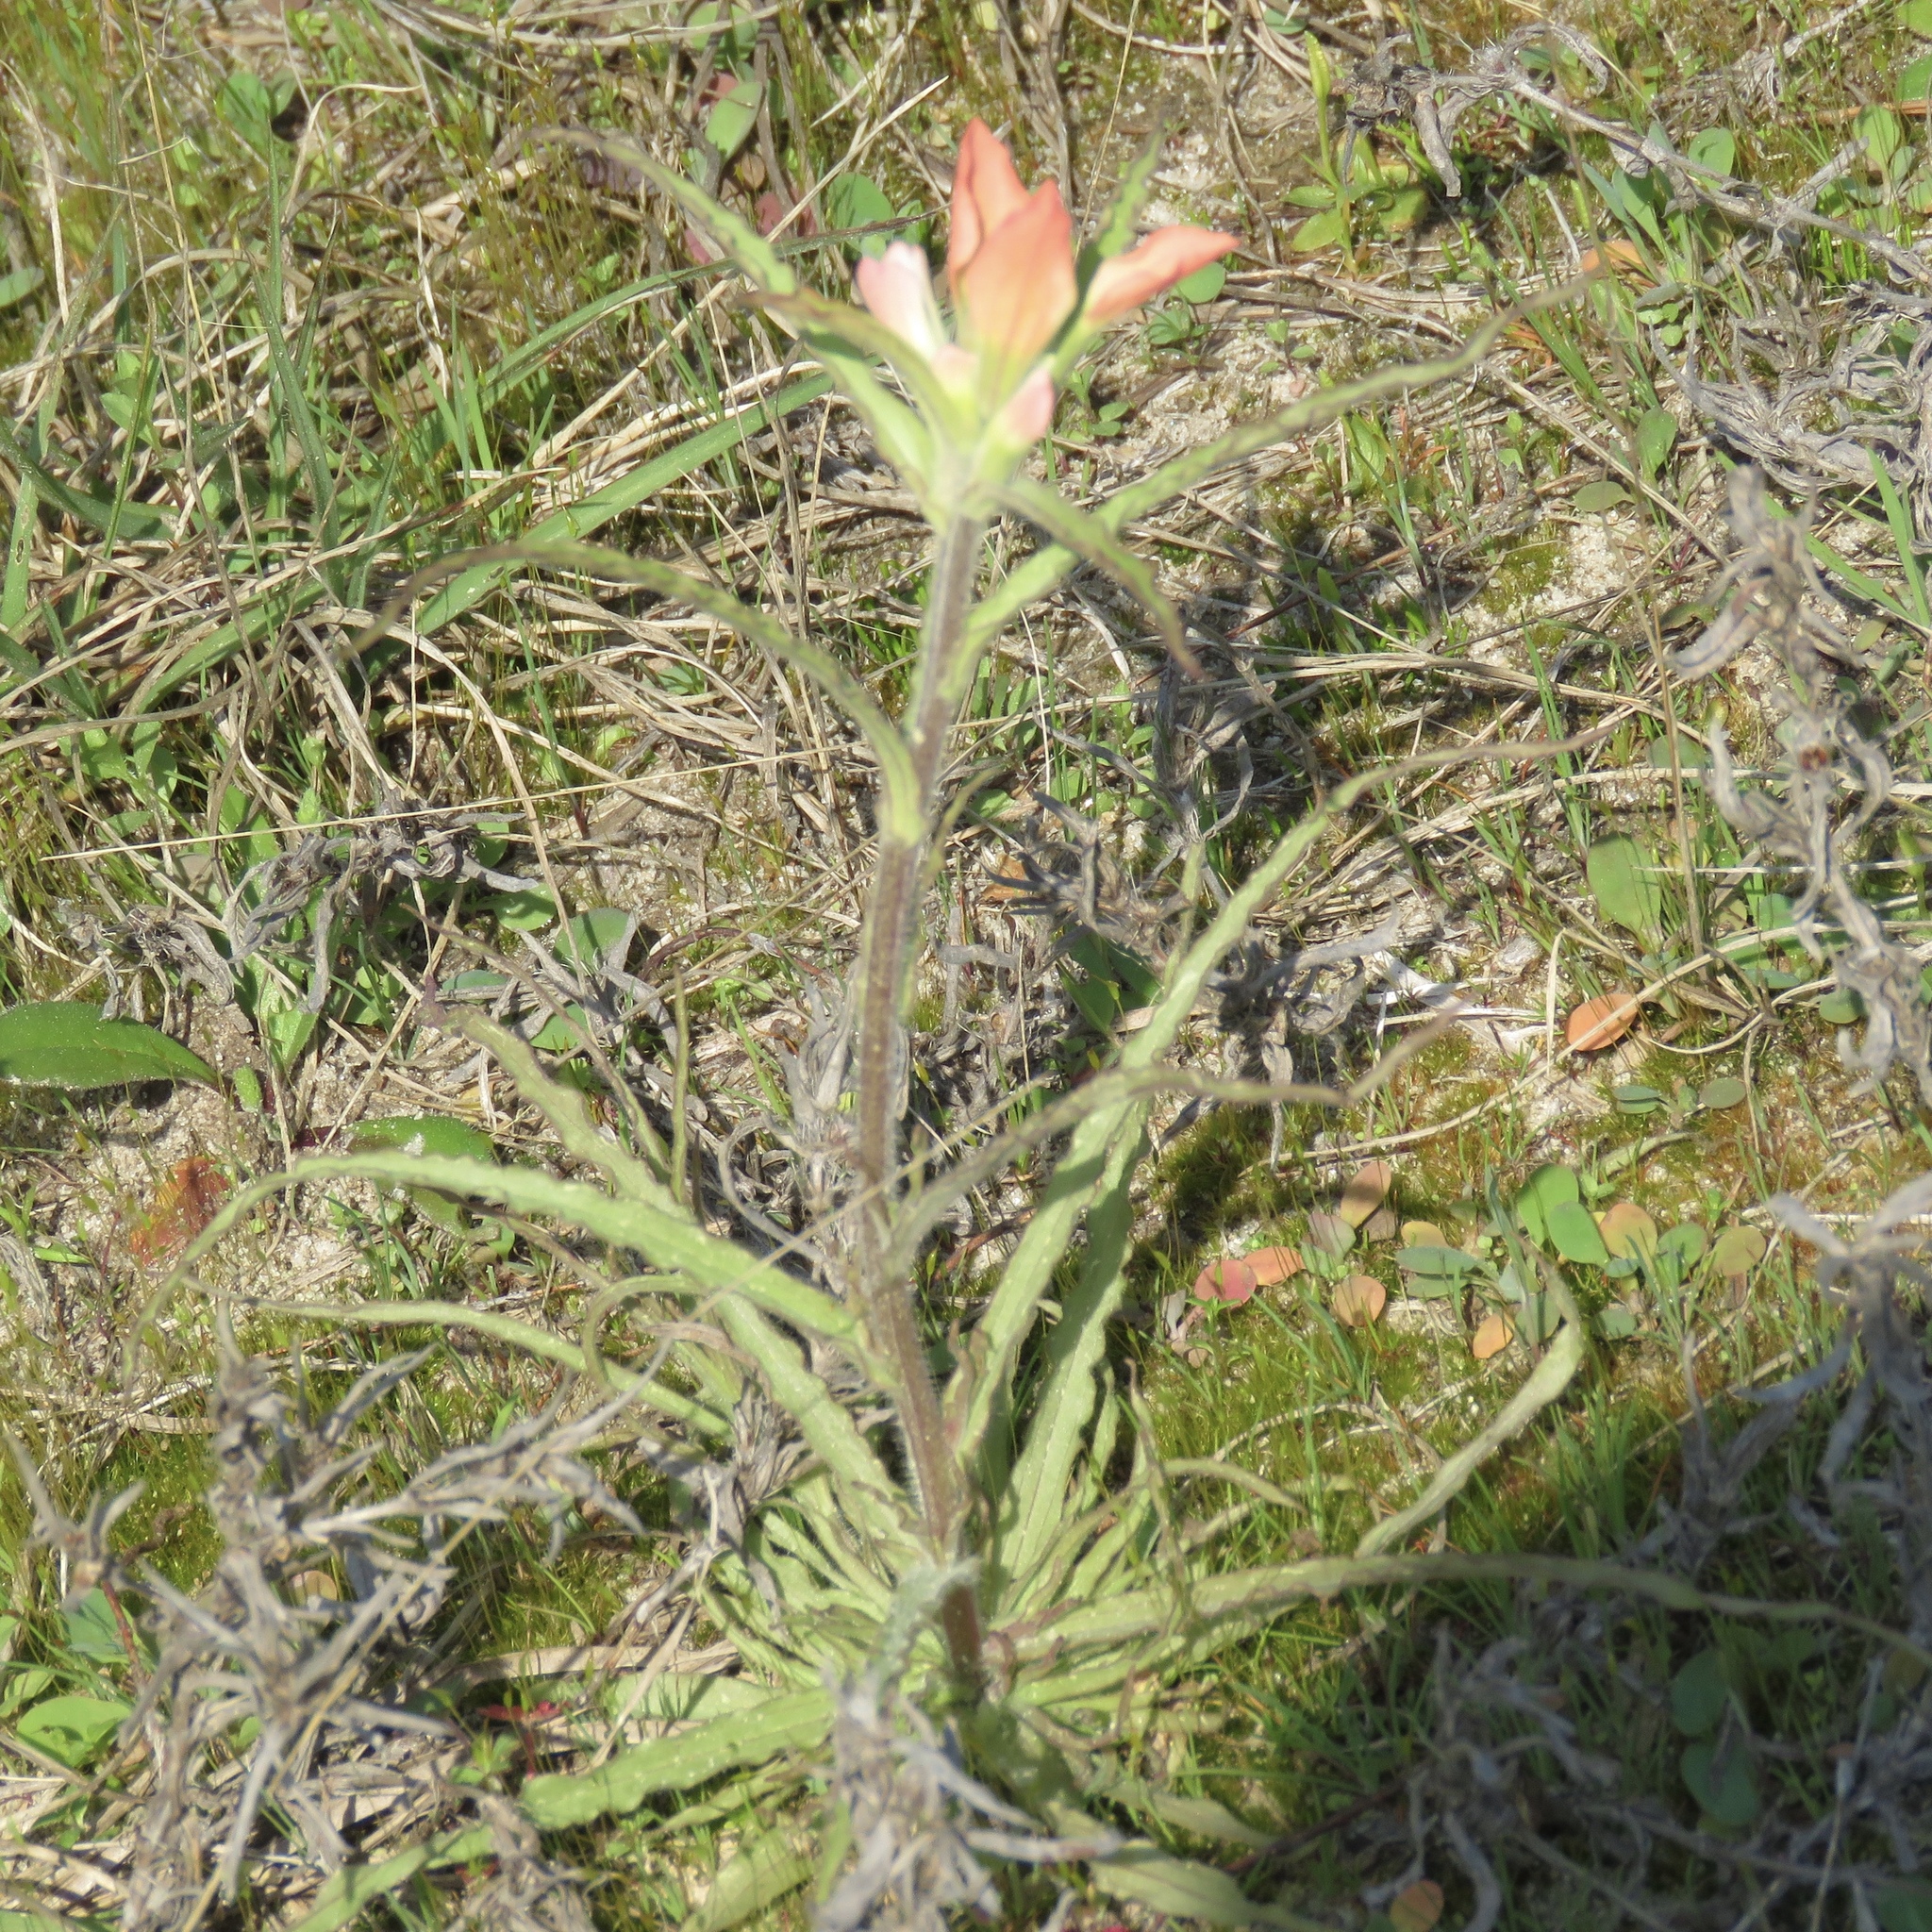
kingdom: Plantae
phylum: Tracheophyta
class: Magnoliopsida
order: Lamiales
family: Orobanchaceae
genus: Castilleja
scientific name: Castilleja indivisa
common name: Texas paintbrush
